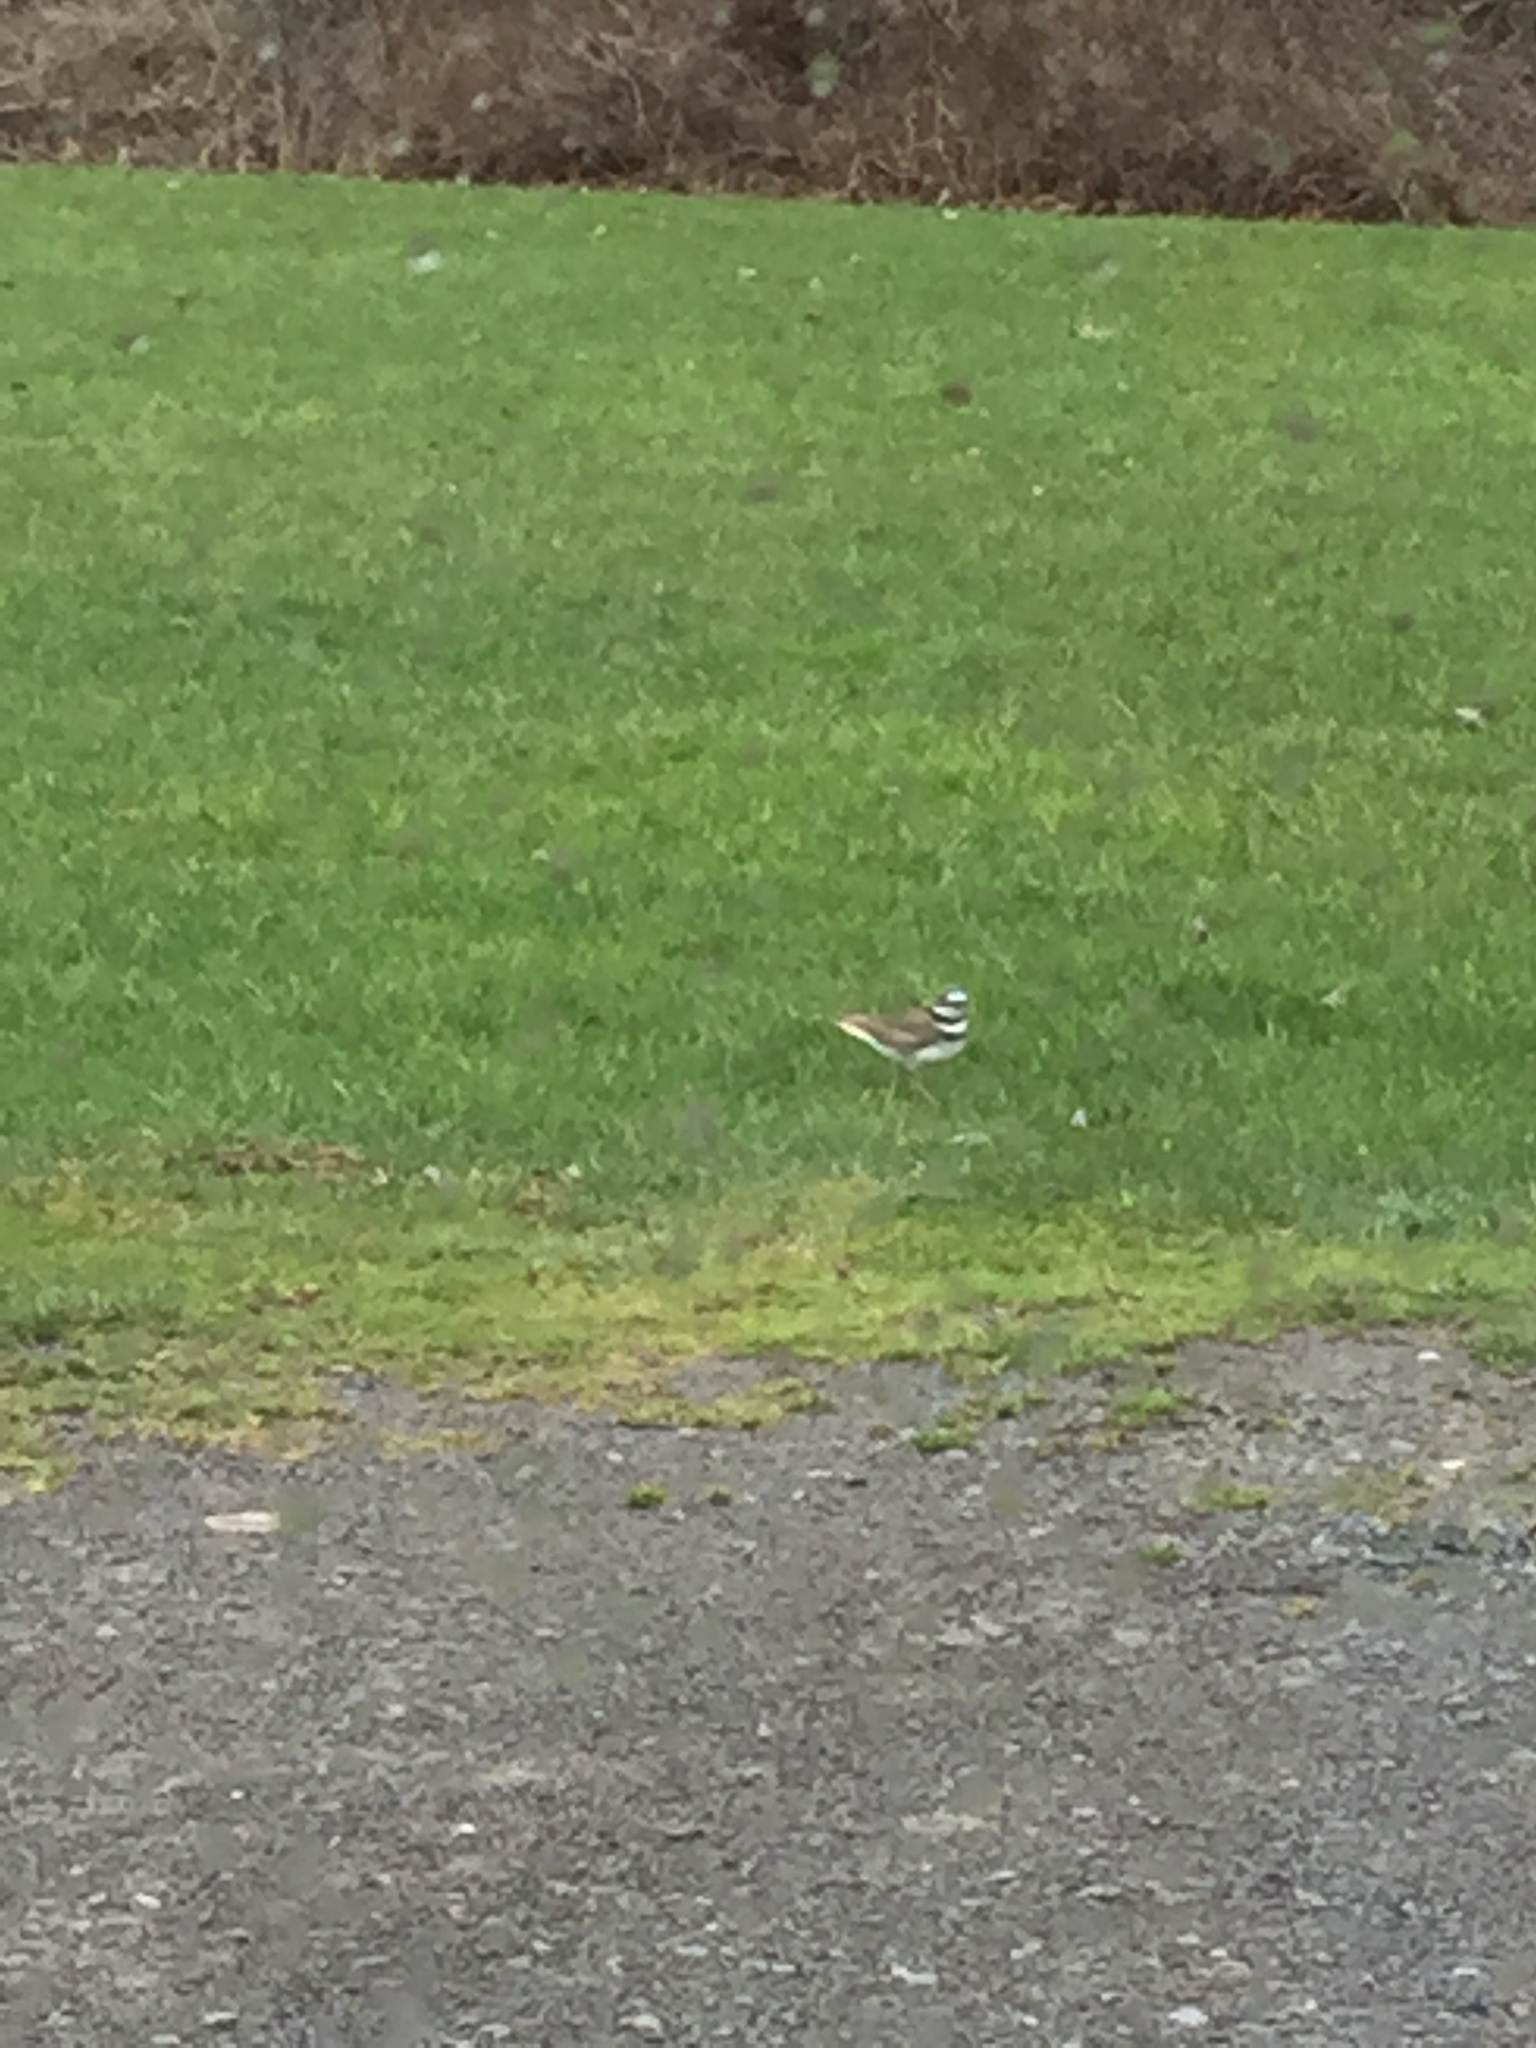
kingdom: Animalia
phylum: Chordata
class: Aves
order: Charadriiformes
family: Charadriidae
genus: Charadrius
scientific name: Charadrius vociferus
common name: Killdeer
